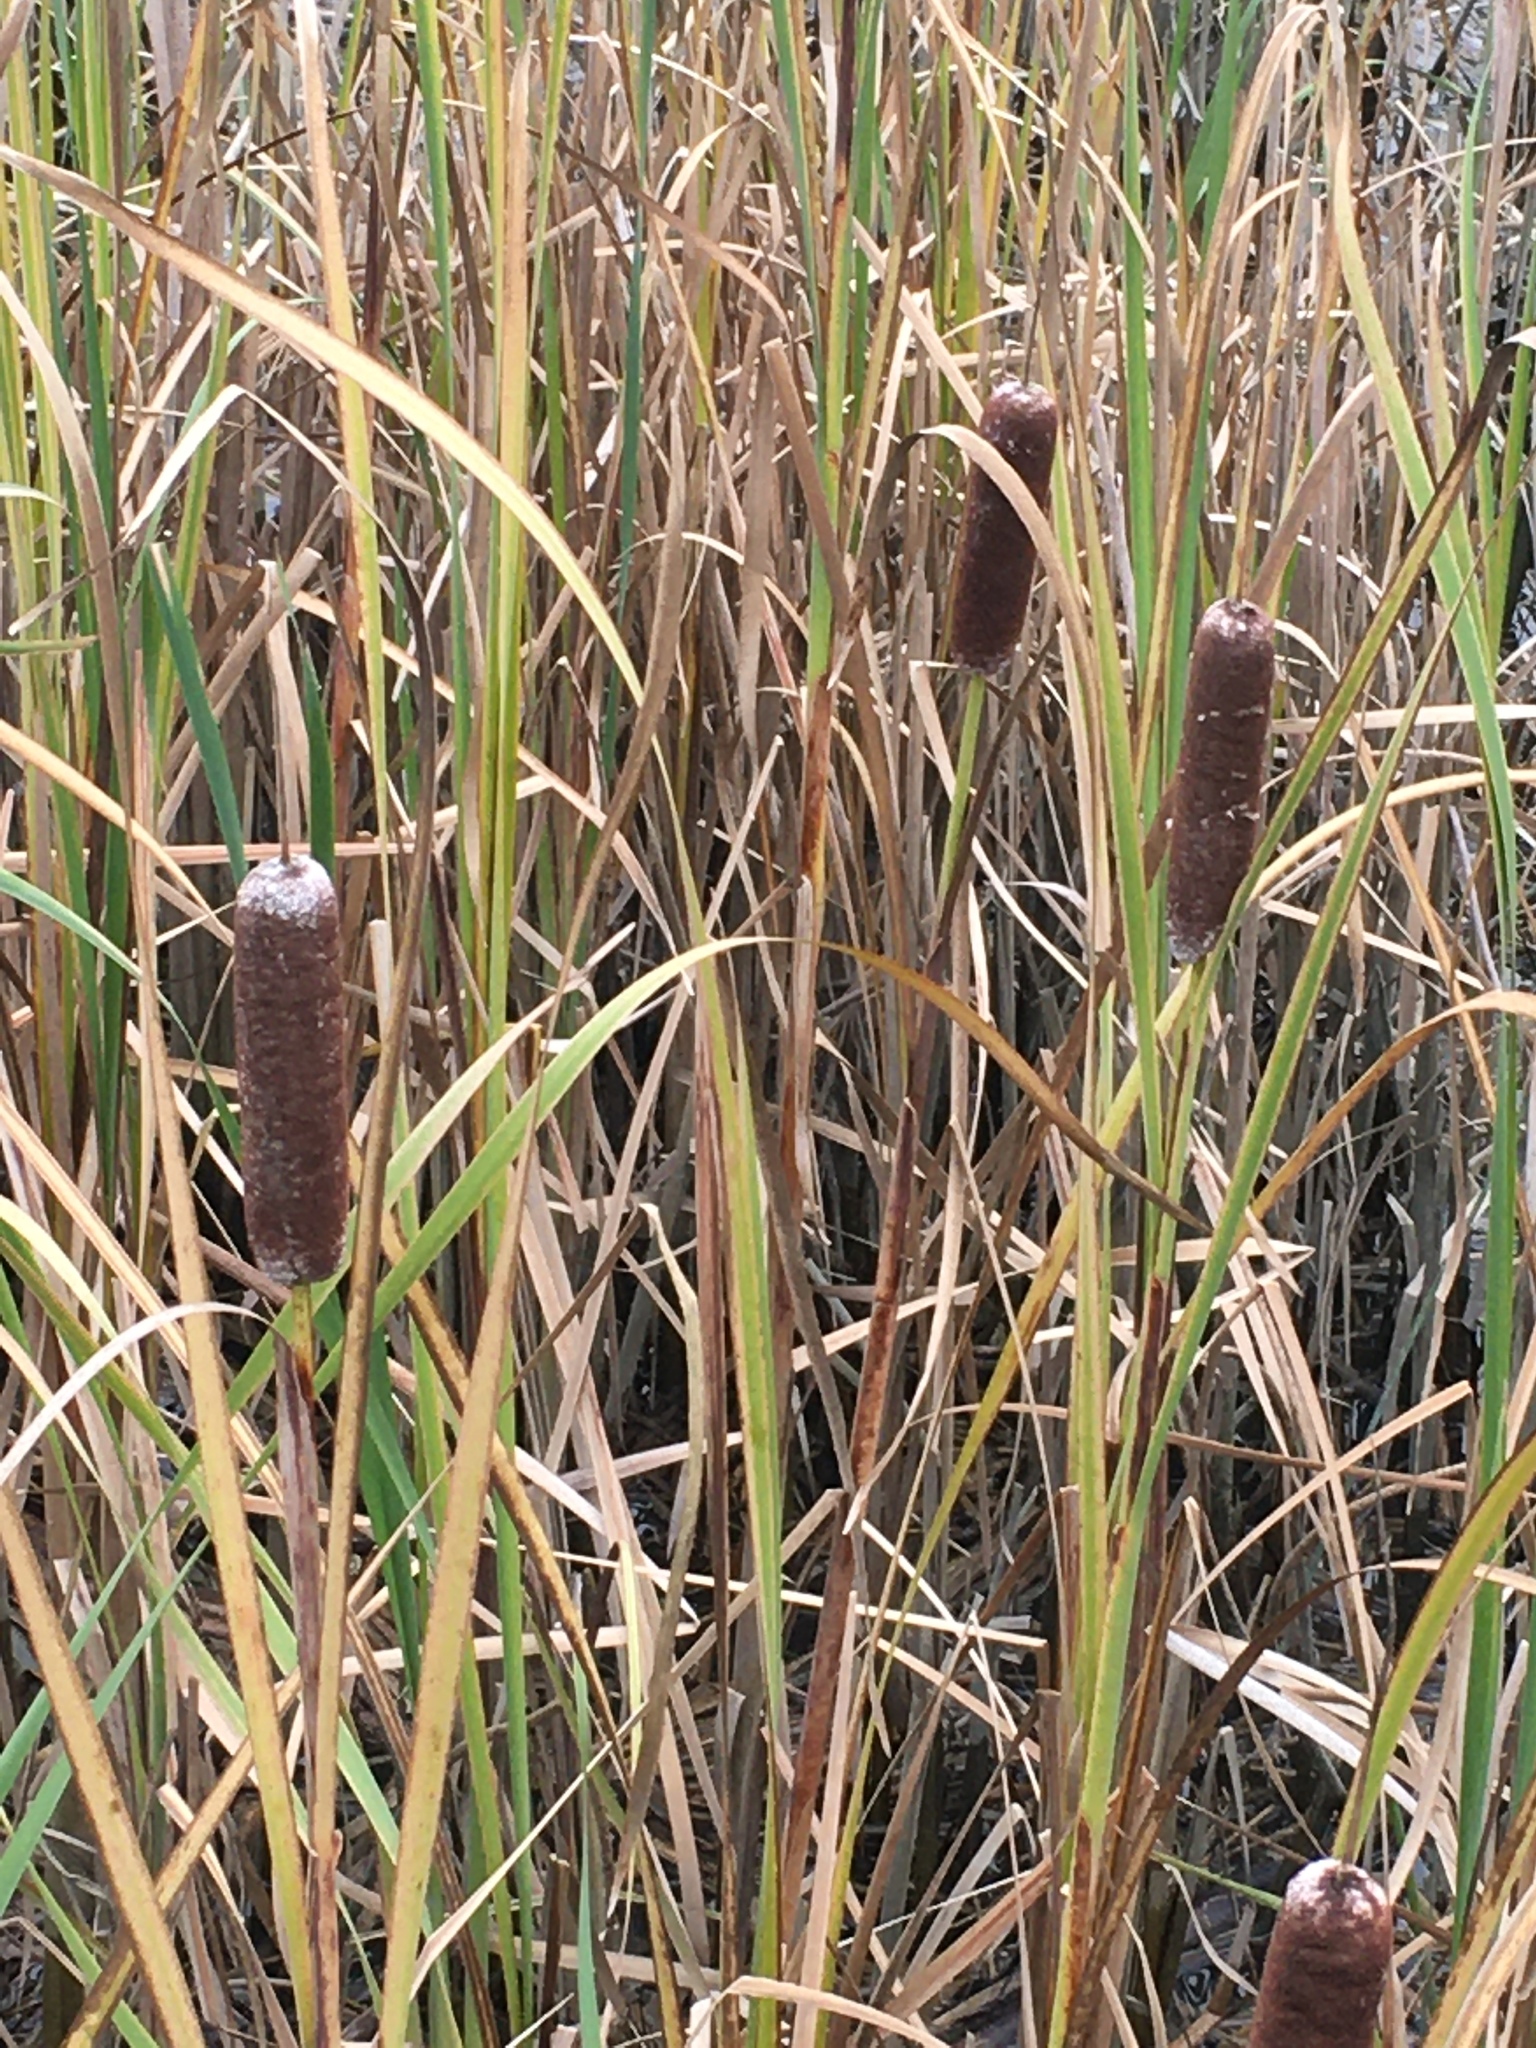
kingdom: Plantae
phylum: Tracheophyta
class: Liliopsida
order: Poales
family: Typhaceae
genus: Typha
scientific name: Typha latifolia
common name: Broadleaf cattail
